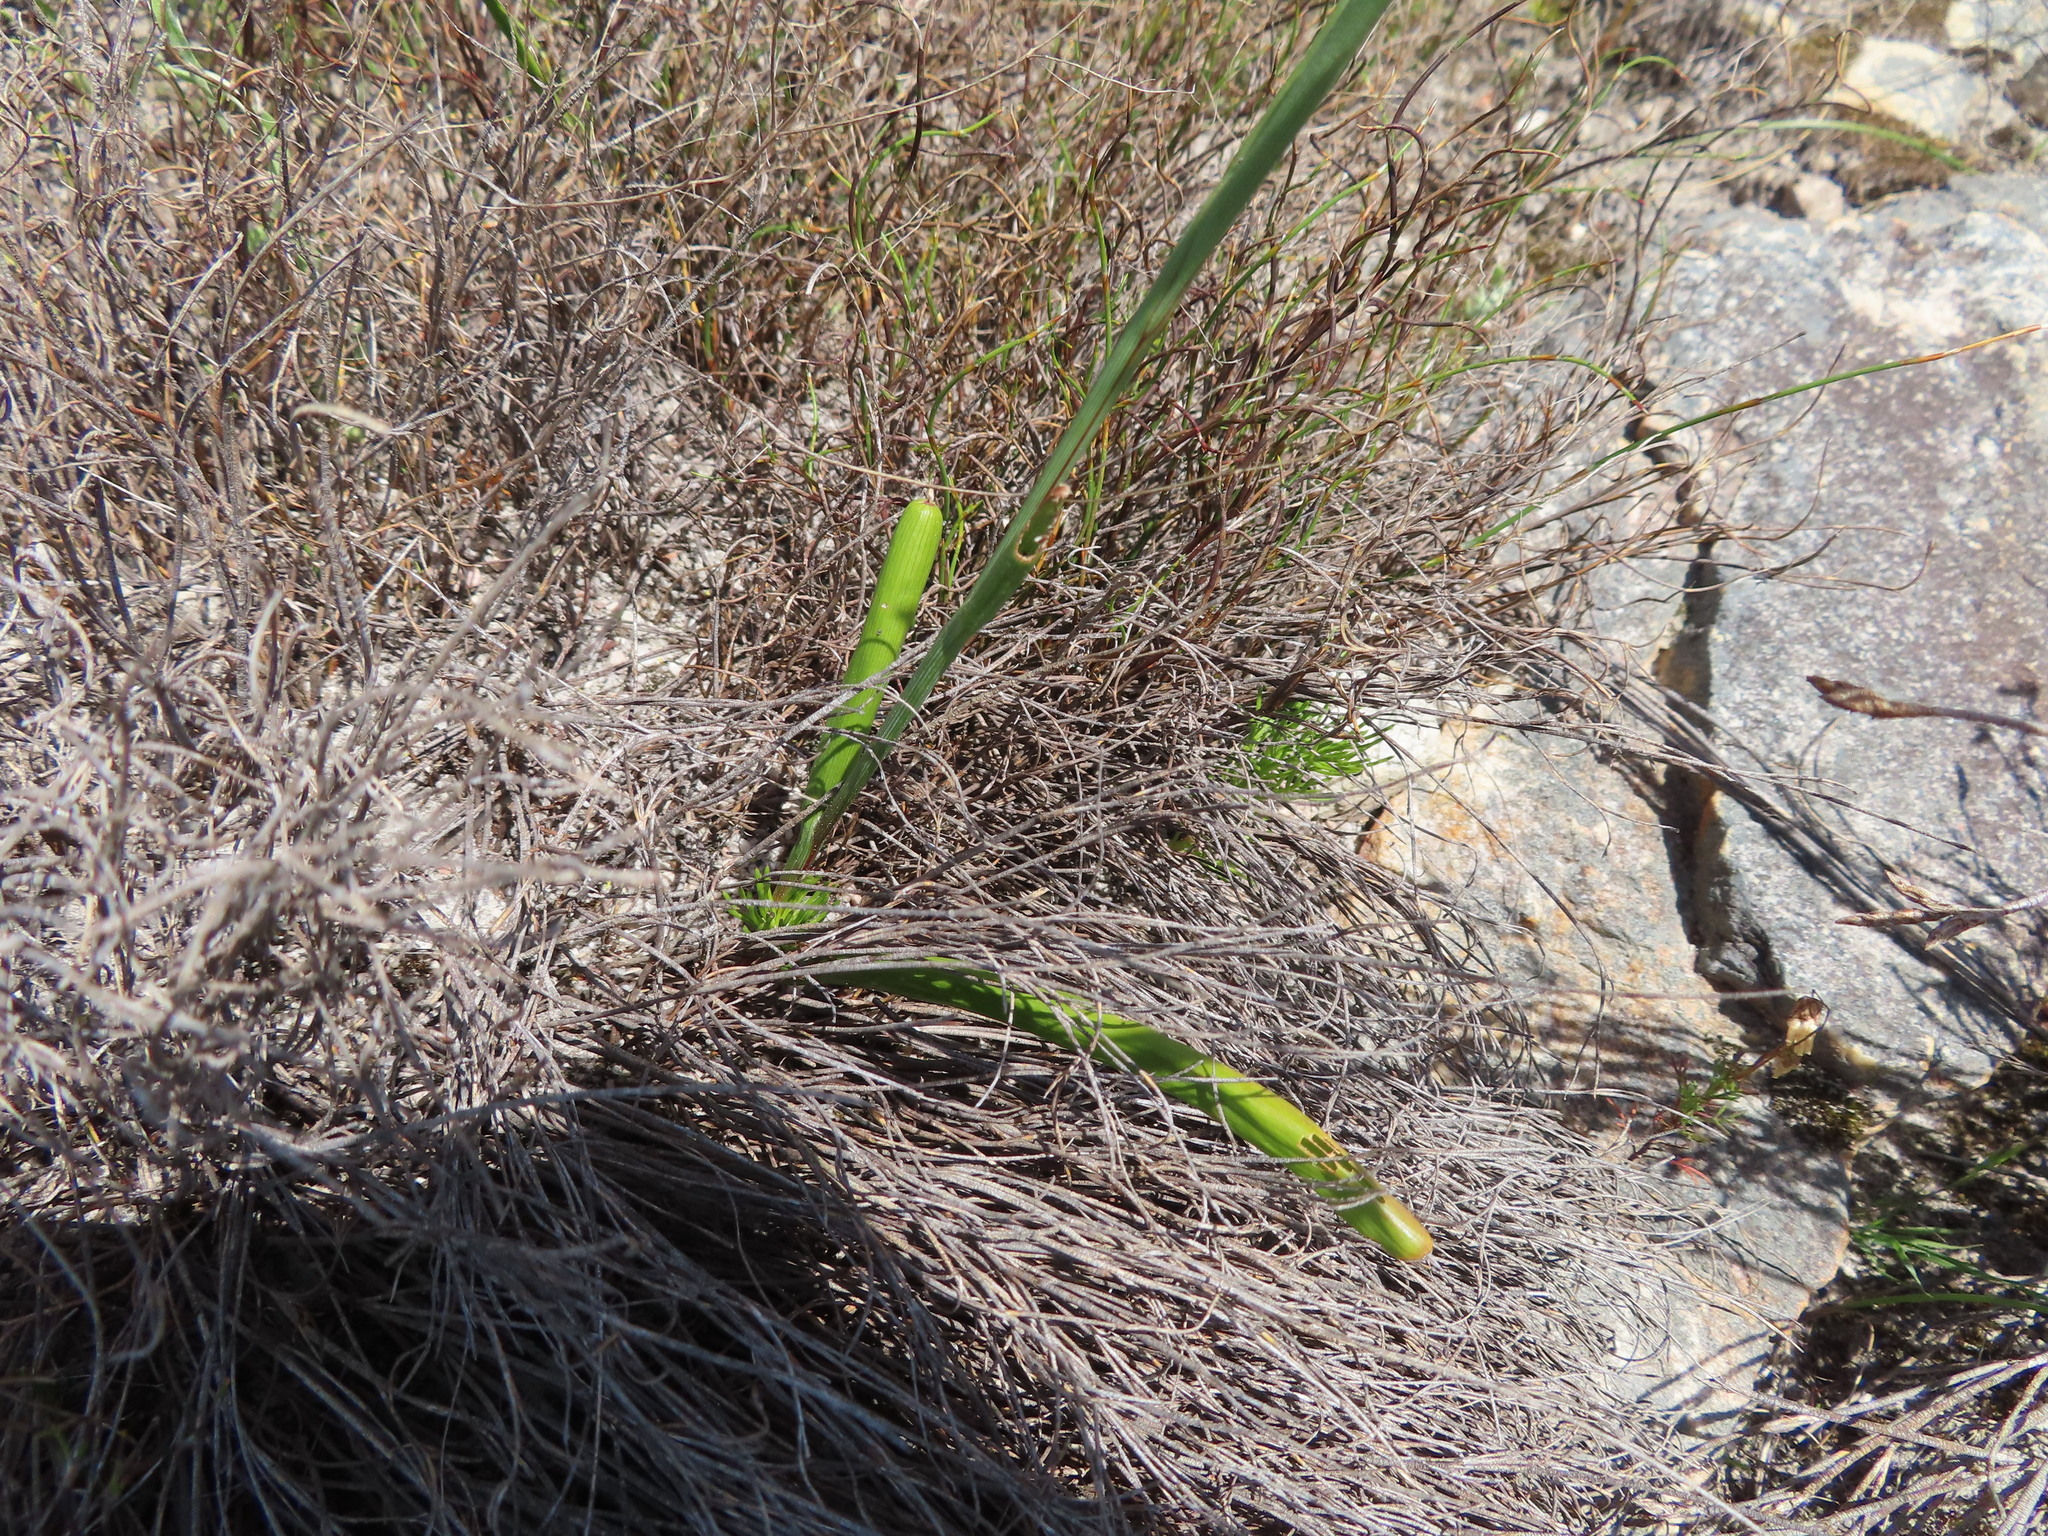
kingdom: Plantae
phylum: Tracheophyta
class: Liliopsida
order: Asparagales
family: Iridaceae
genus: Micranthus
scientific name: Micranthus tubulosus
